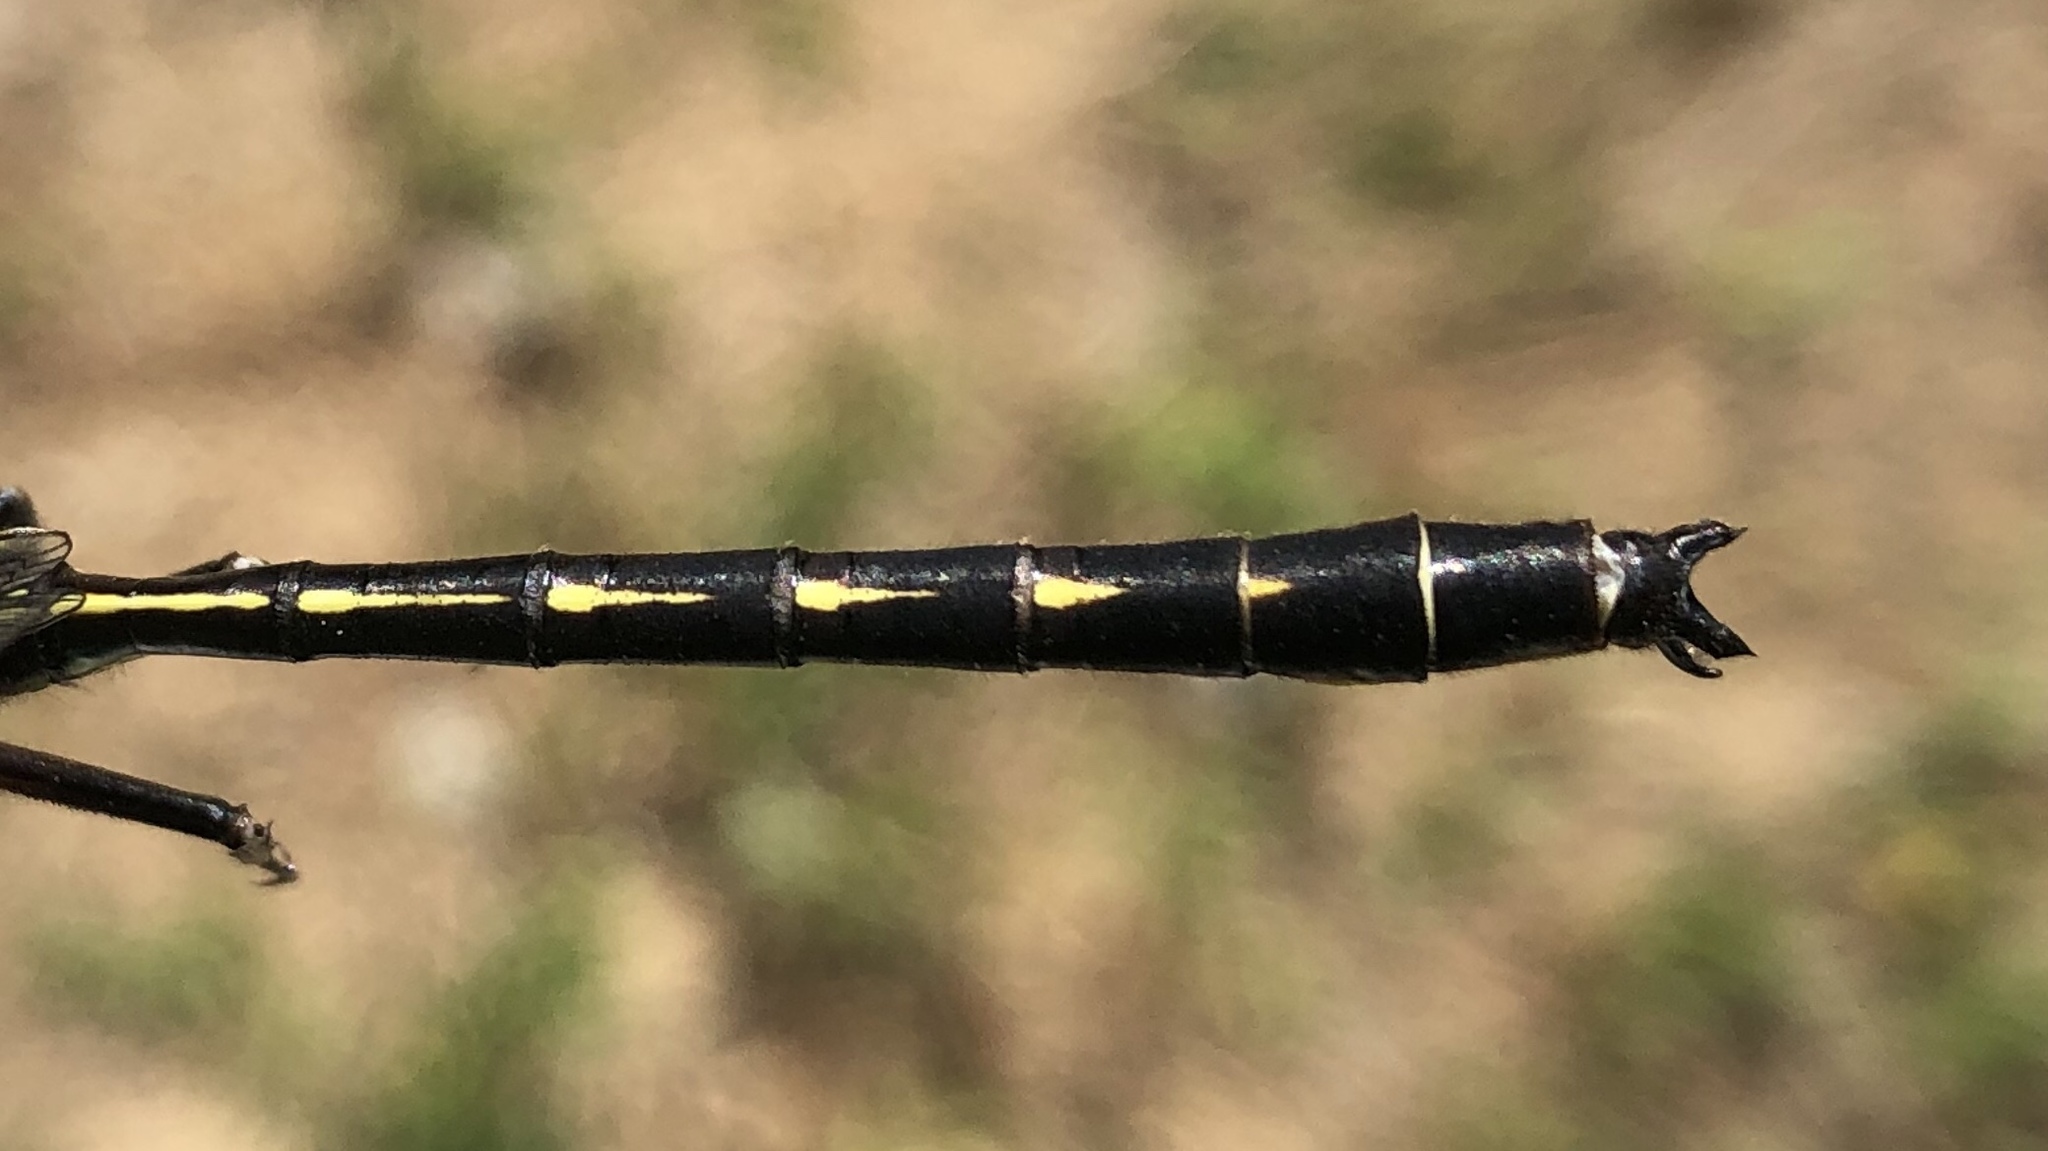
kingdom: Animalia
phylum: Arthropoda
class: Insecta
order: Odonata
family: Gomphidae
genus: Phanogomphus
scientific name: Phanogomphus lividus
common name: Ashy clubtail
